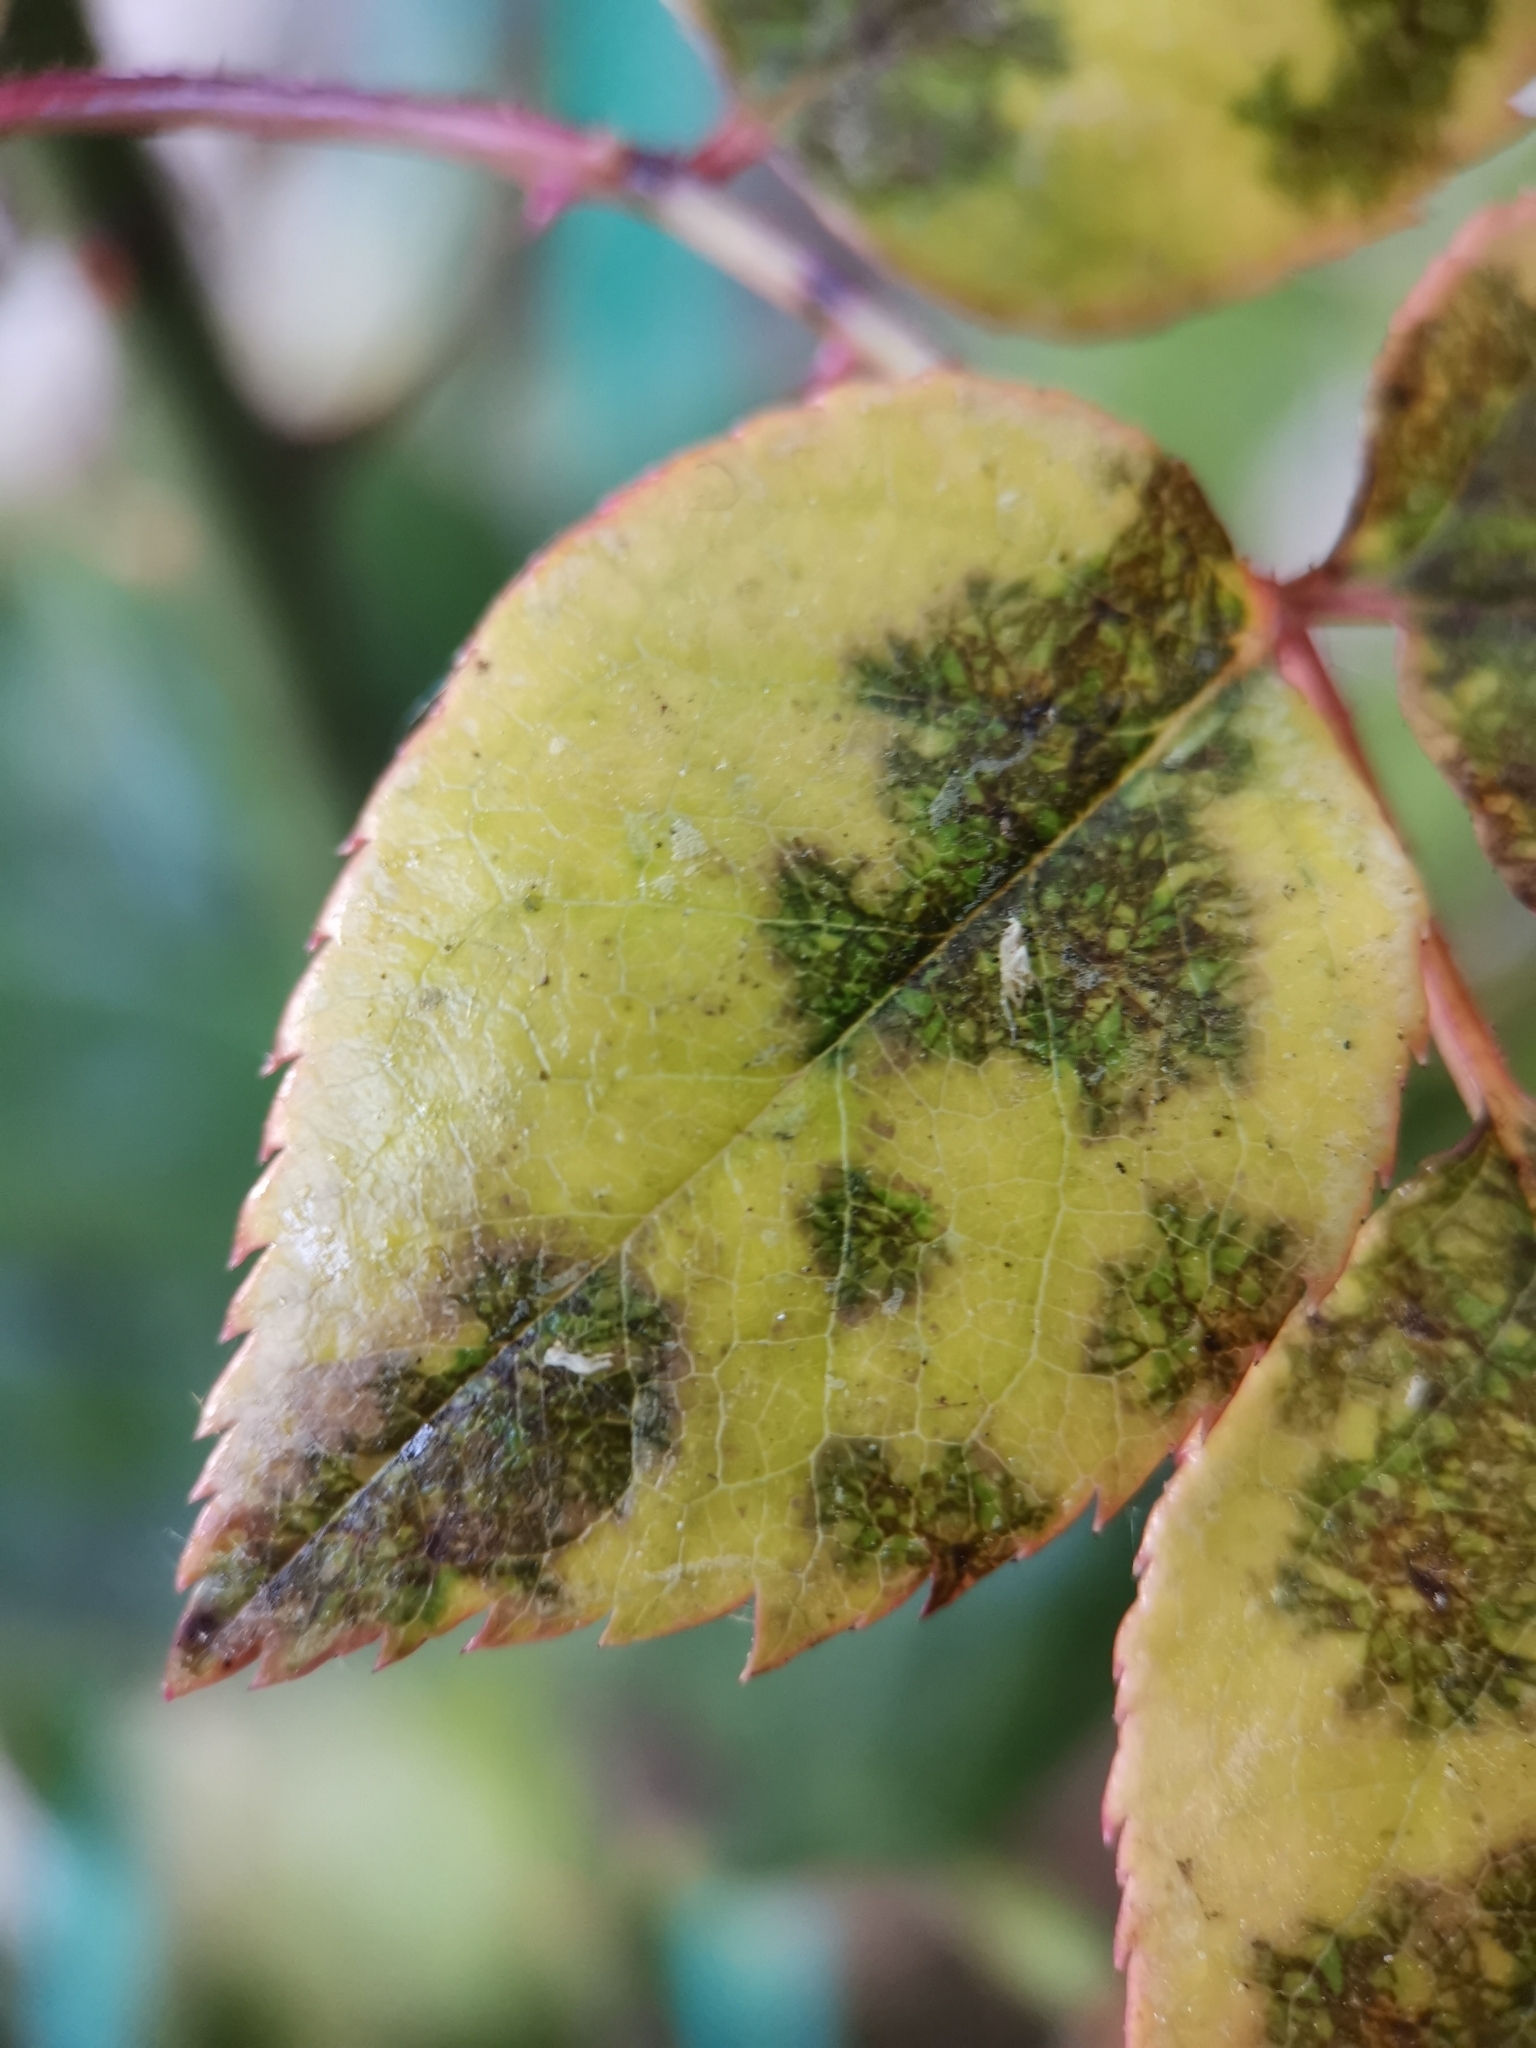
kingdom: Fungi
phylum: Ascomycota
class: Leotiomycetes
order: Helotiales
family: Drepanopezizaceae
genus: Diplocarpon
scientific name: Diplocarpon rosae
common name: Rose black-spot
